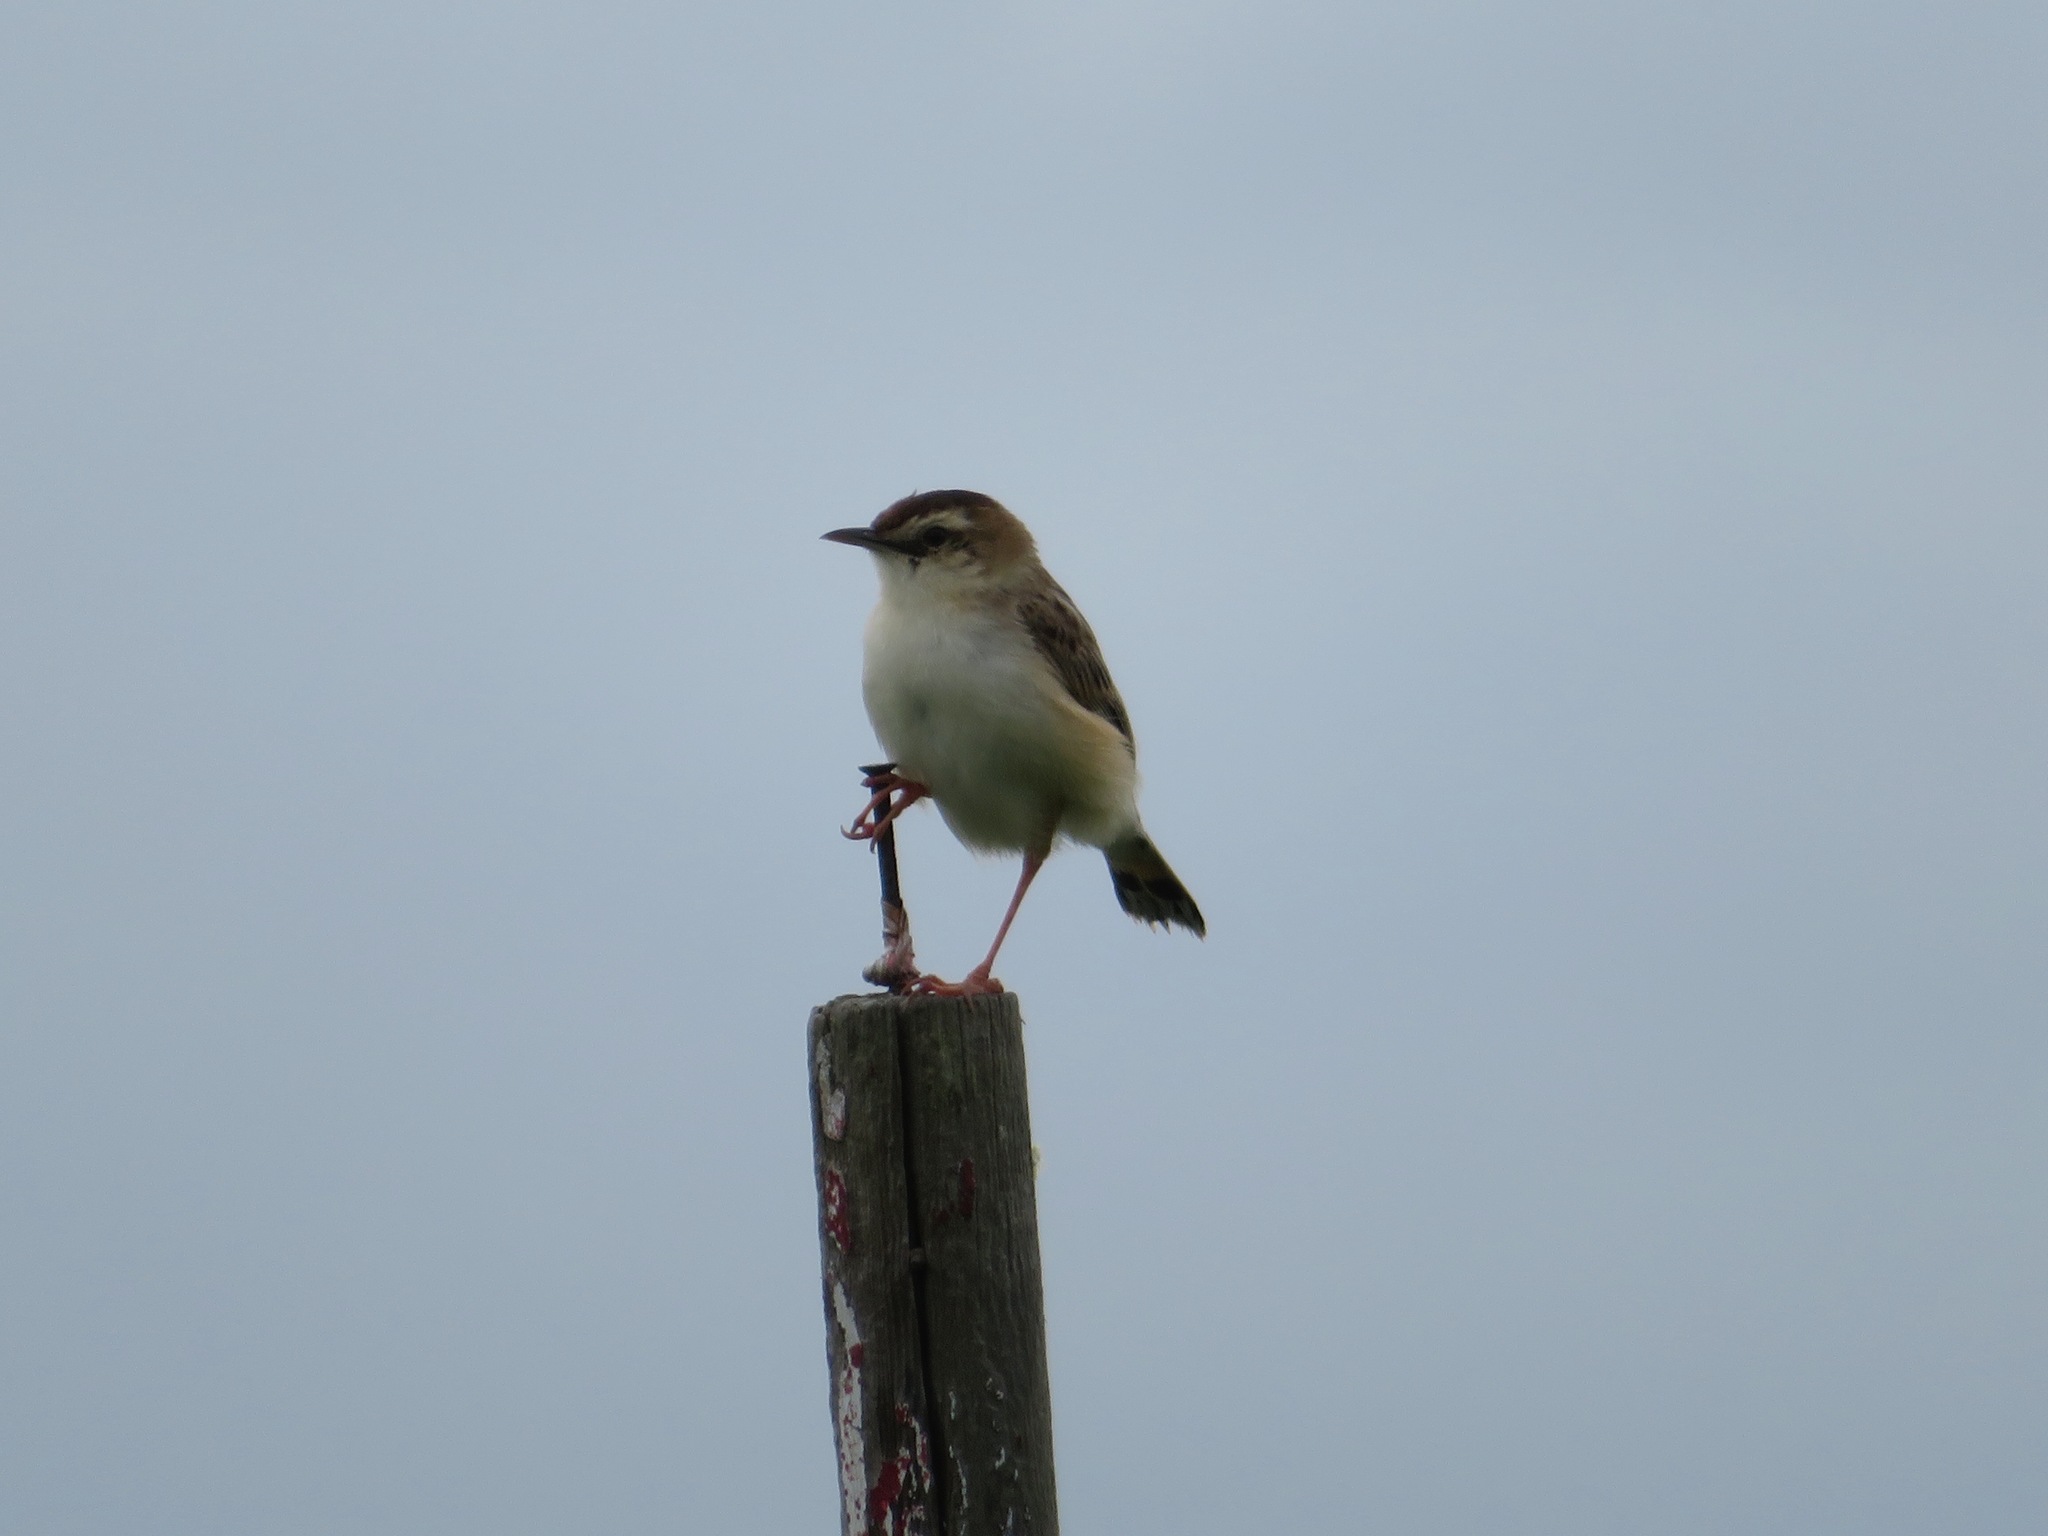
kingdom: Animalia
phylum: Chordata
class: Aves
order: Passeriformes
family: Cisticolidae
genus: Cisticola
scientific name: Cisticola juncidis
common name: Zitting cisticola
